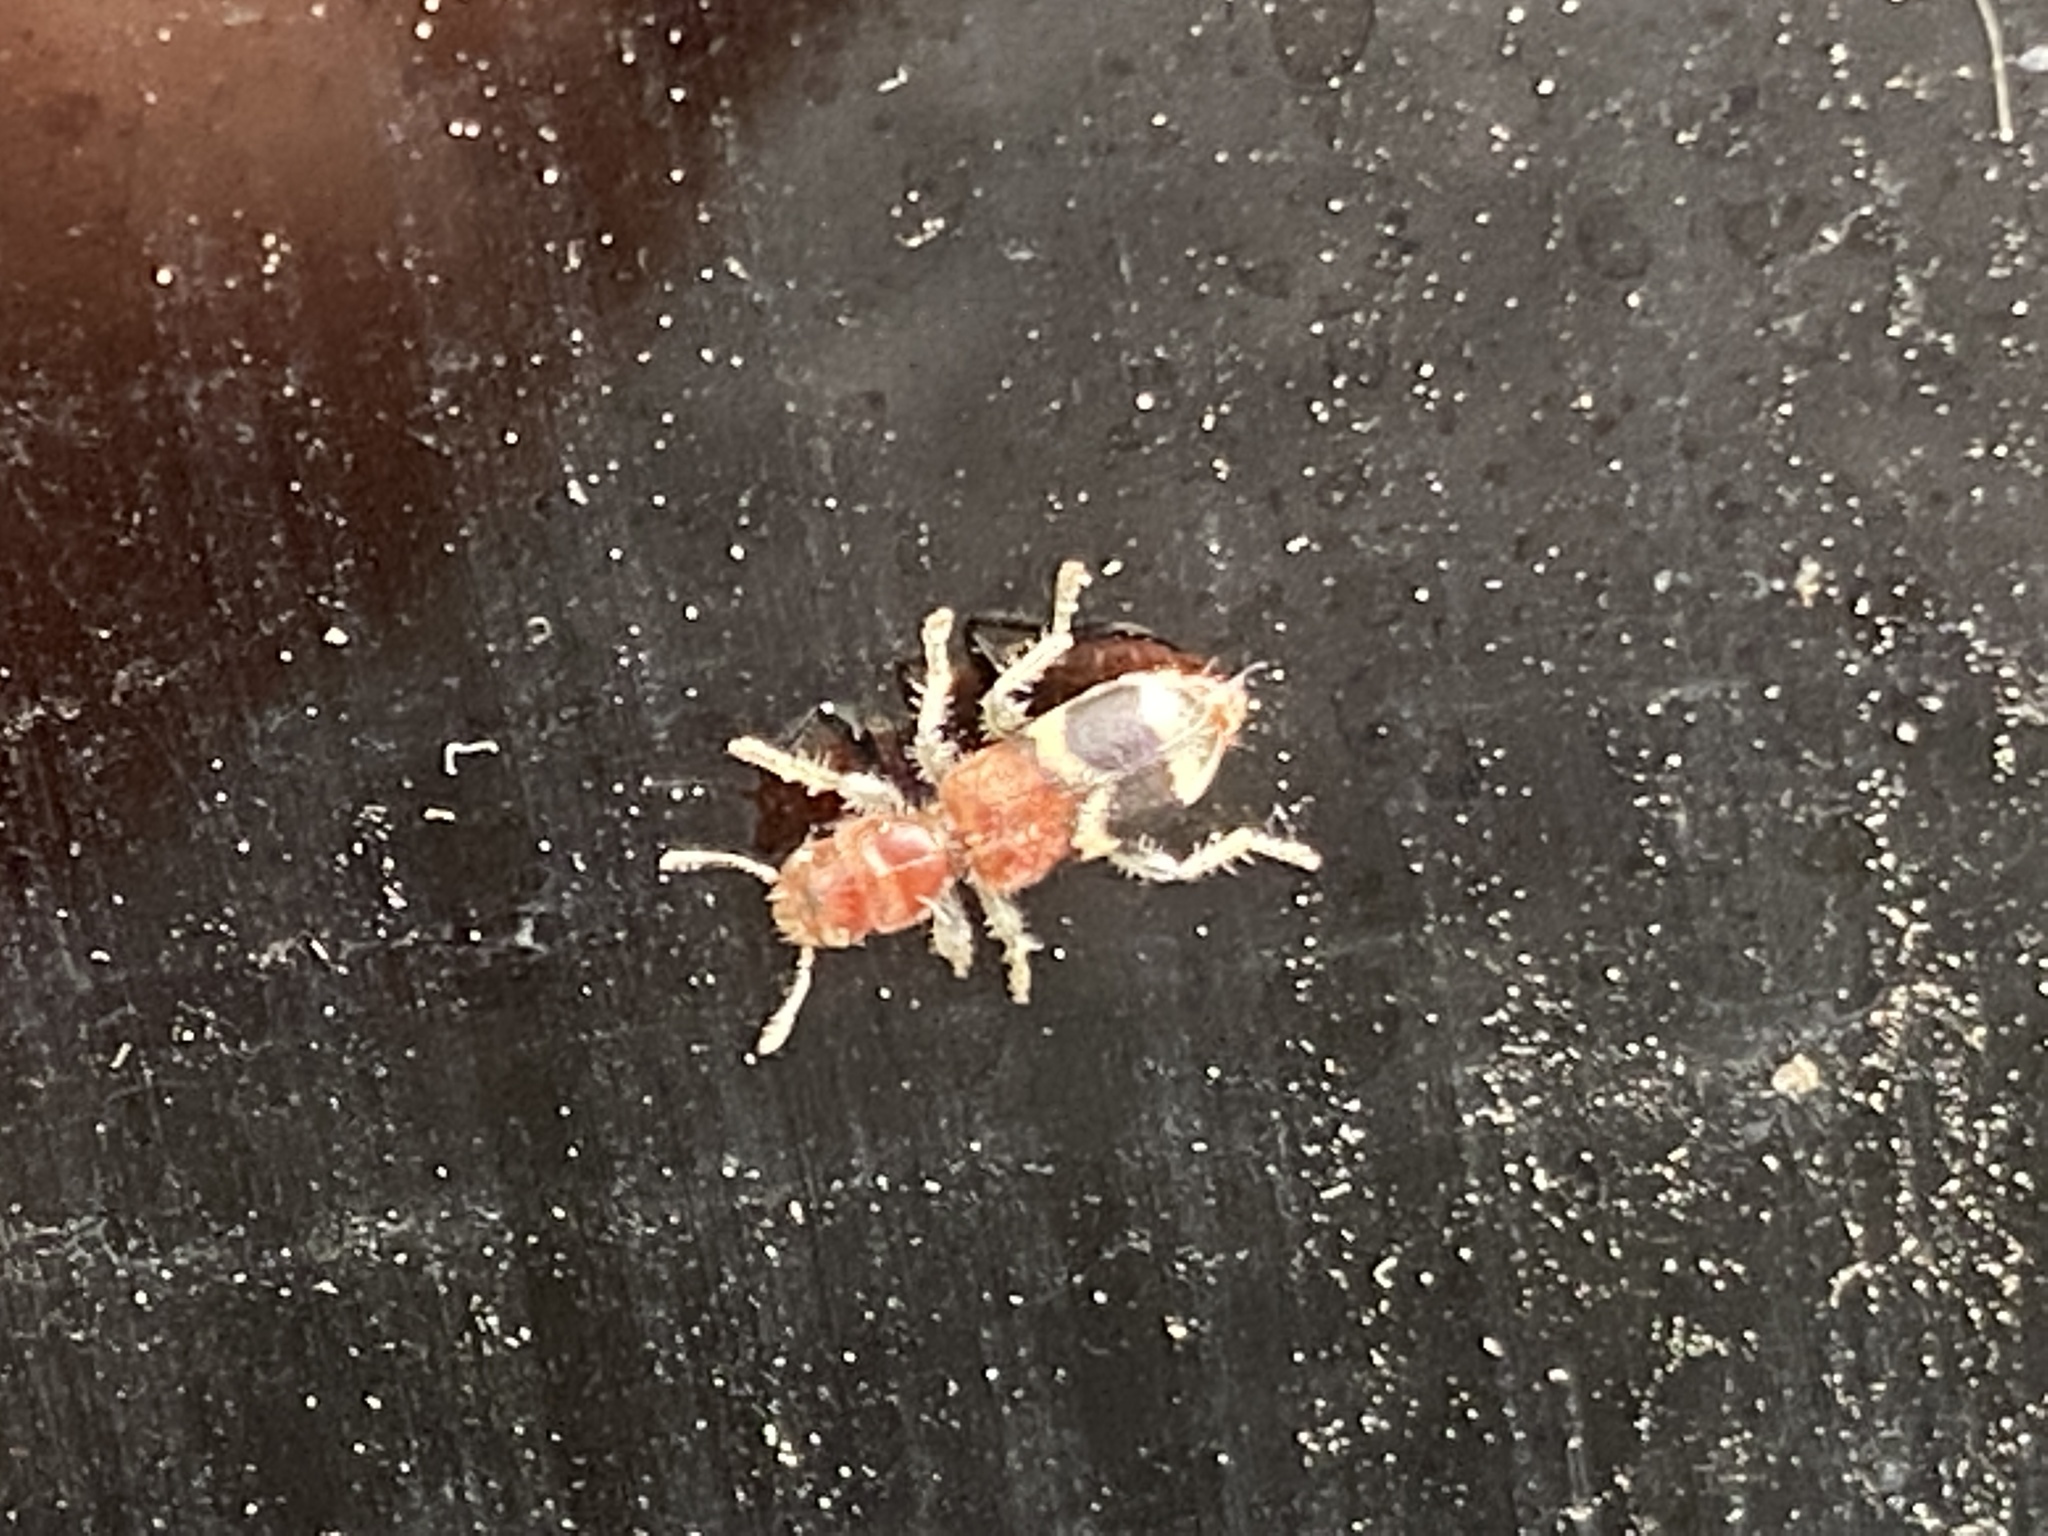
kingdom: Animalia
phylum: Arthropoda
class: Insecta
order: Coleoptera
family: Cleridae
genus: Enoclerus
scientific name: Enoclerus nigripes
